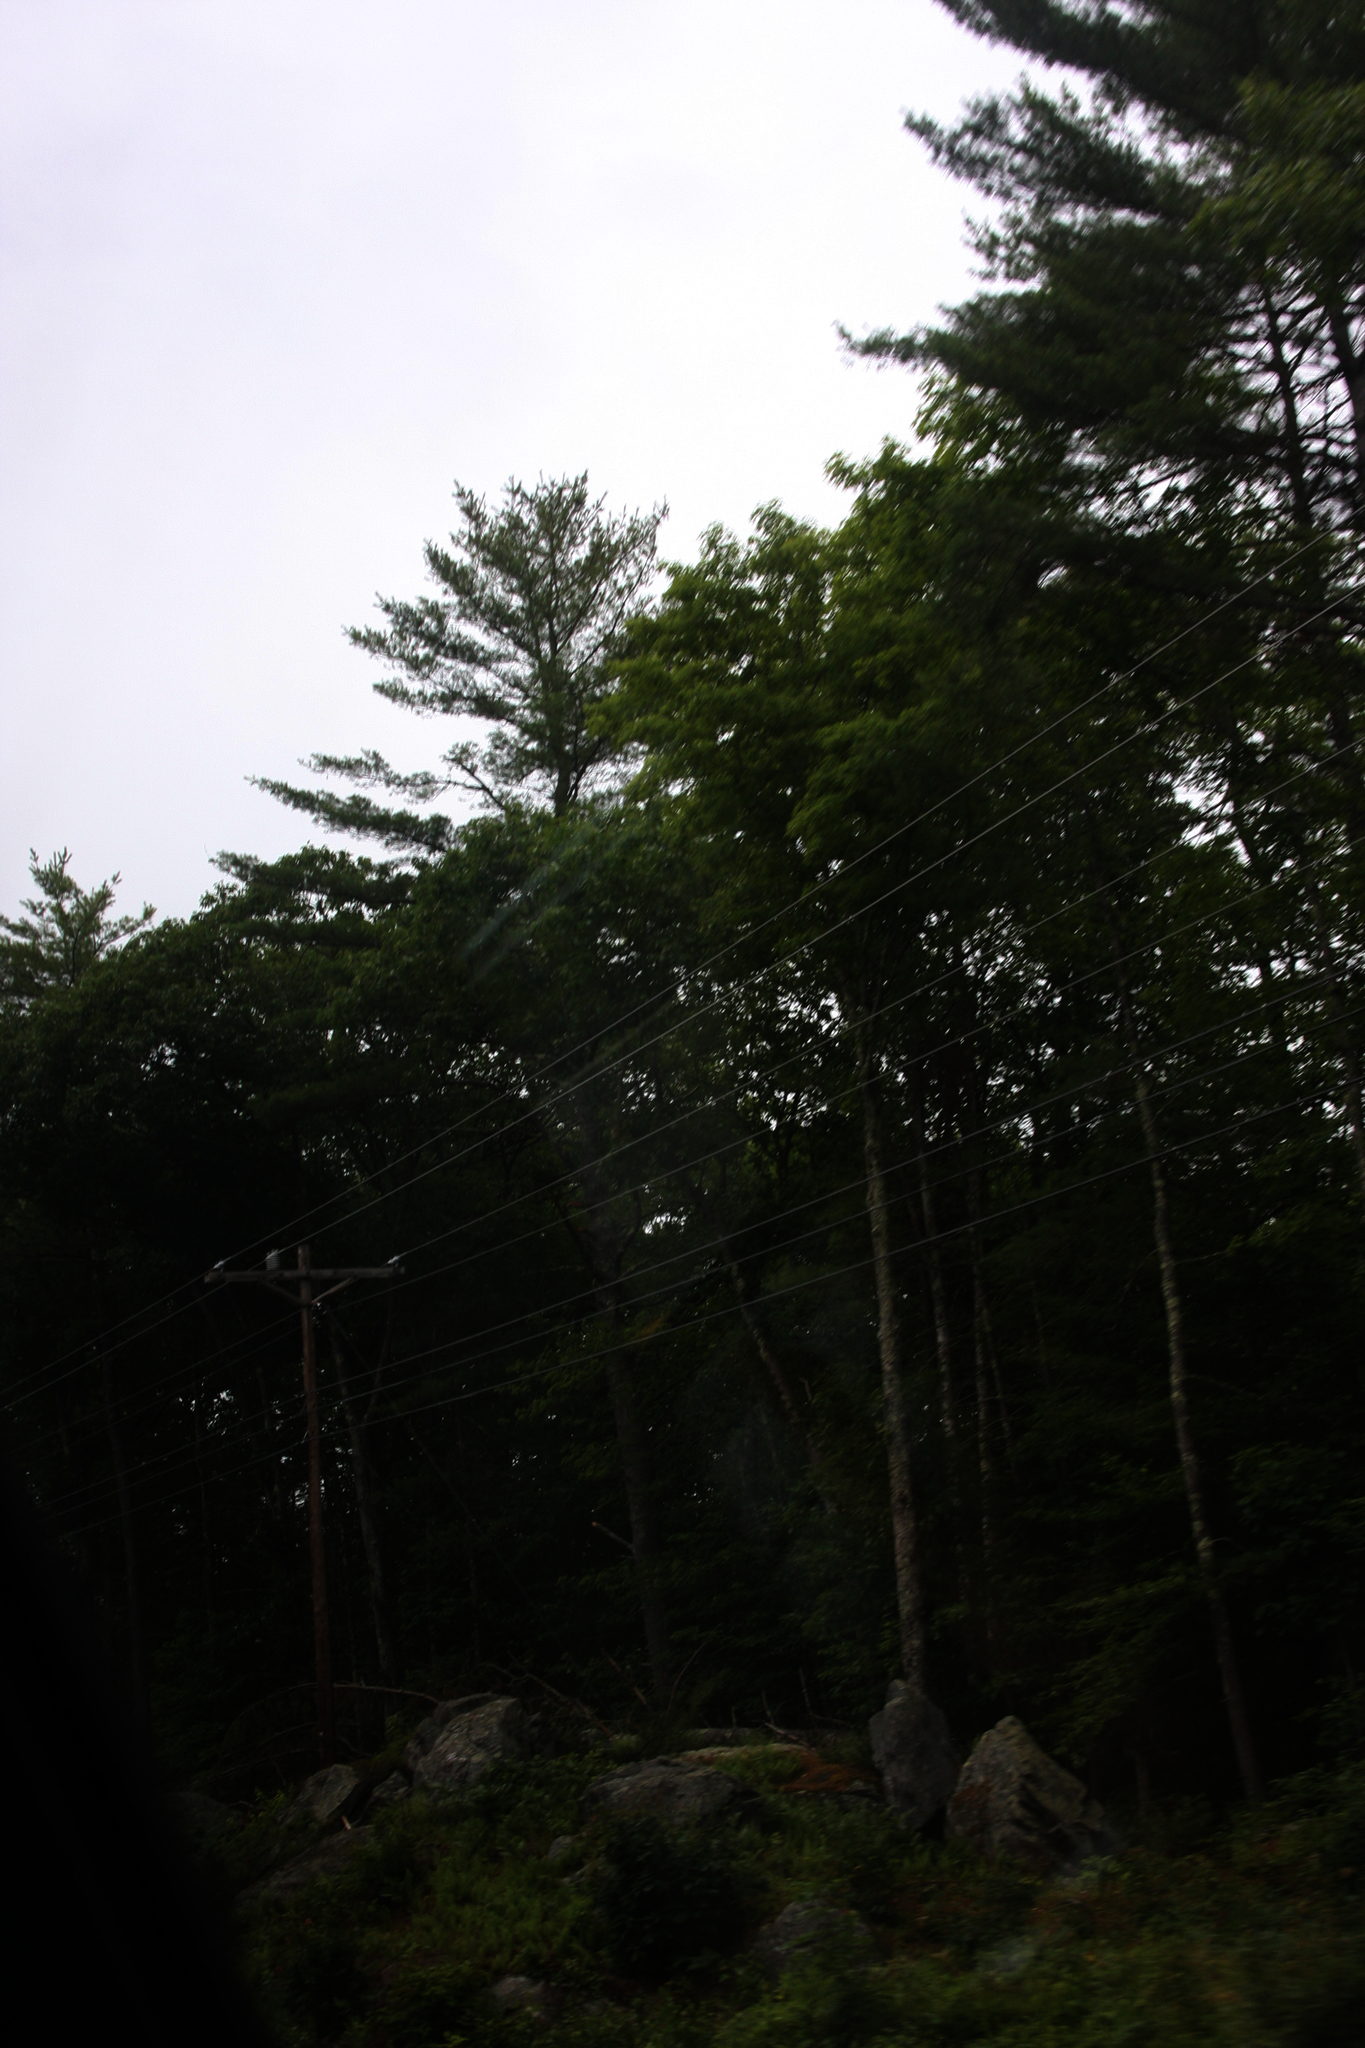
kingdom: Plantae
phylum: Tracheophyta
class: Pinopsida
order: Pinales
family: Pinaceae
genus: Pinus
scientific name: Pinus strobus
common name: Weymouth pine
